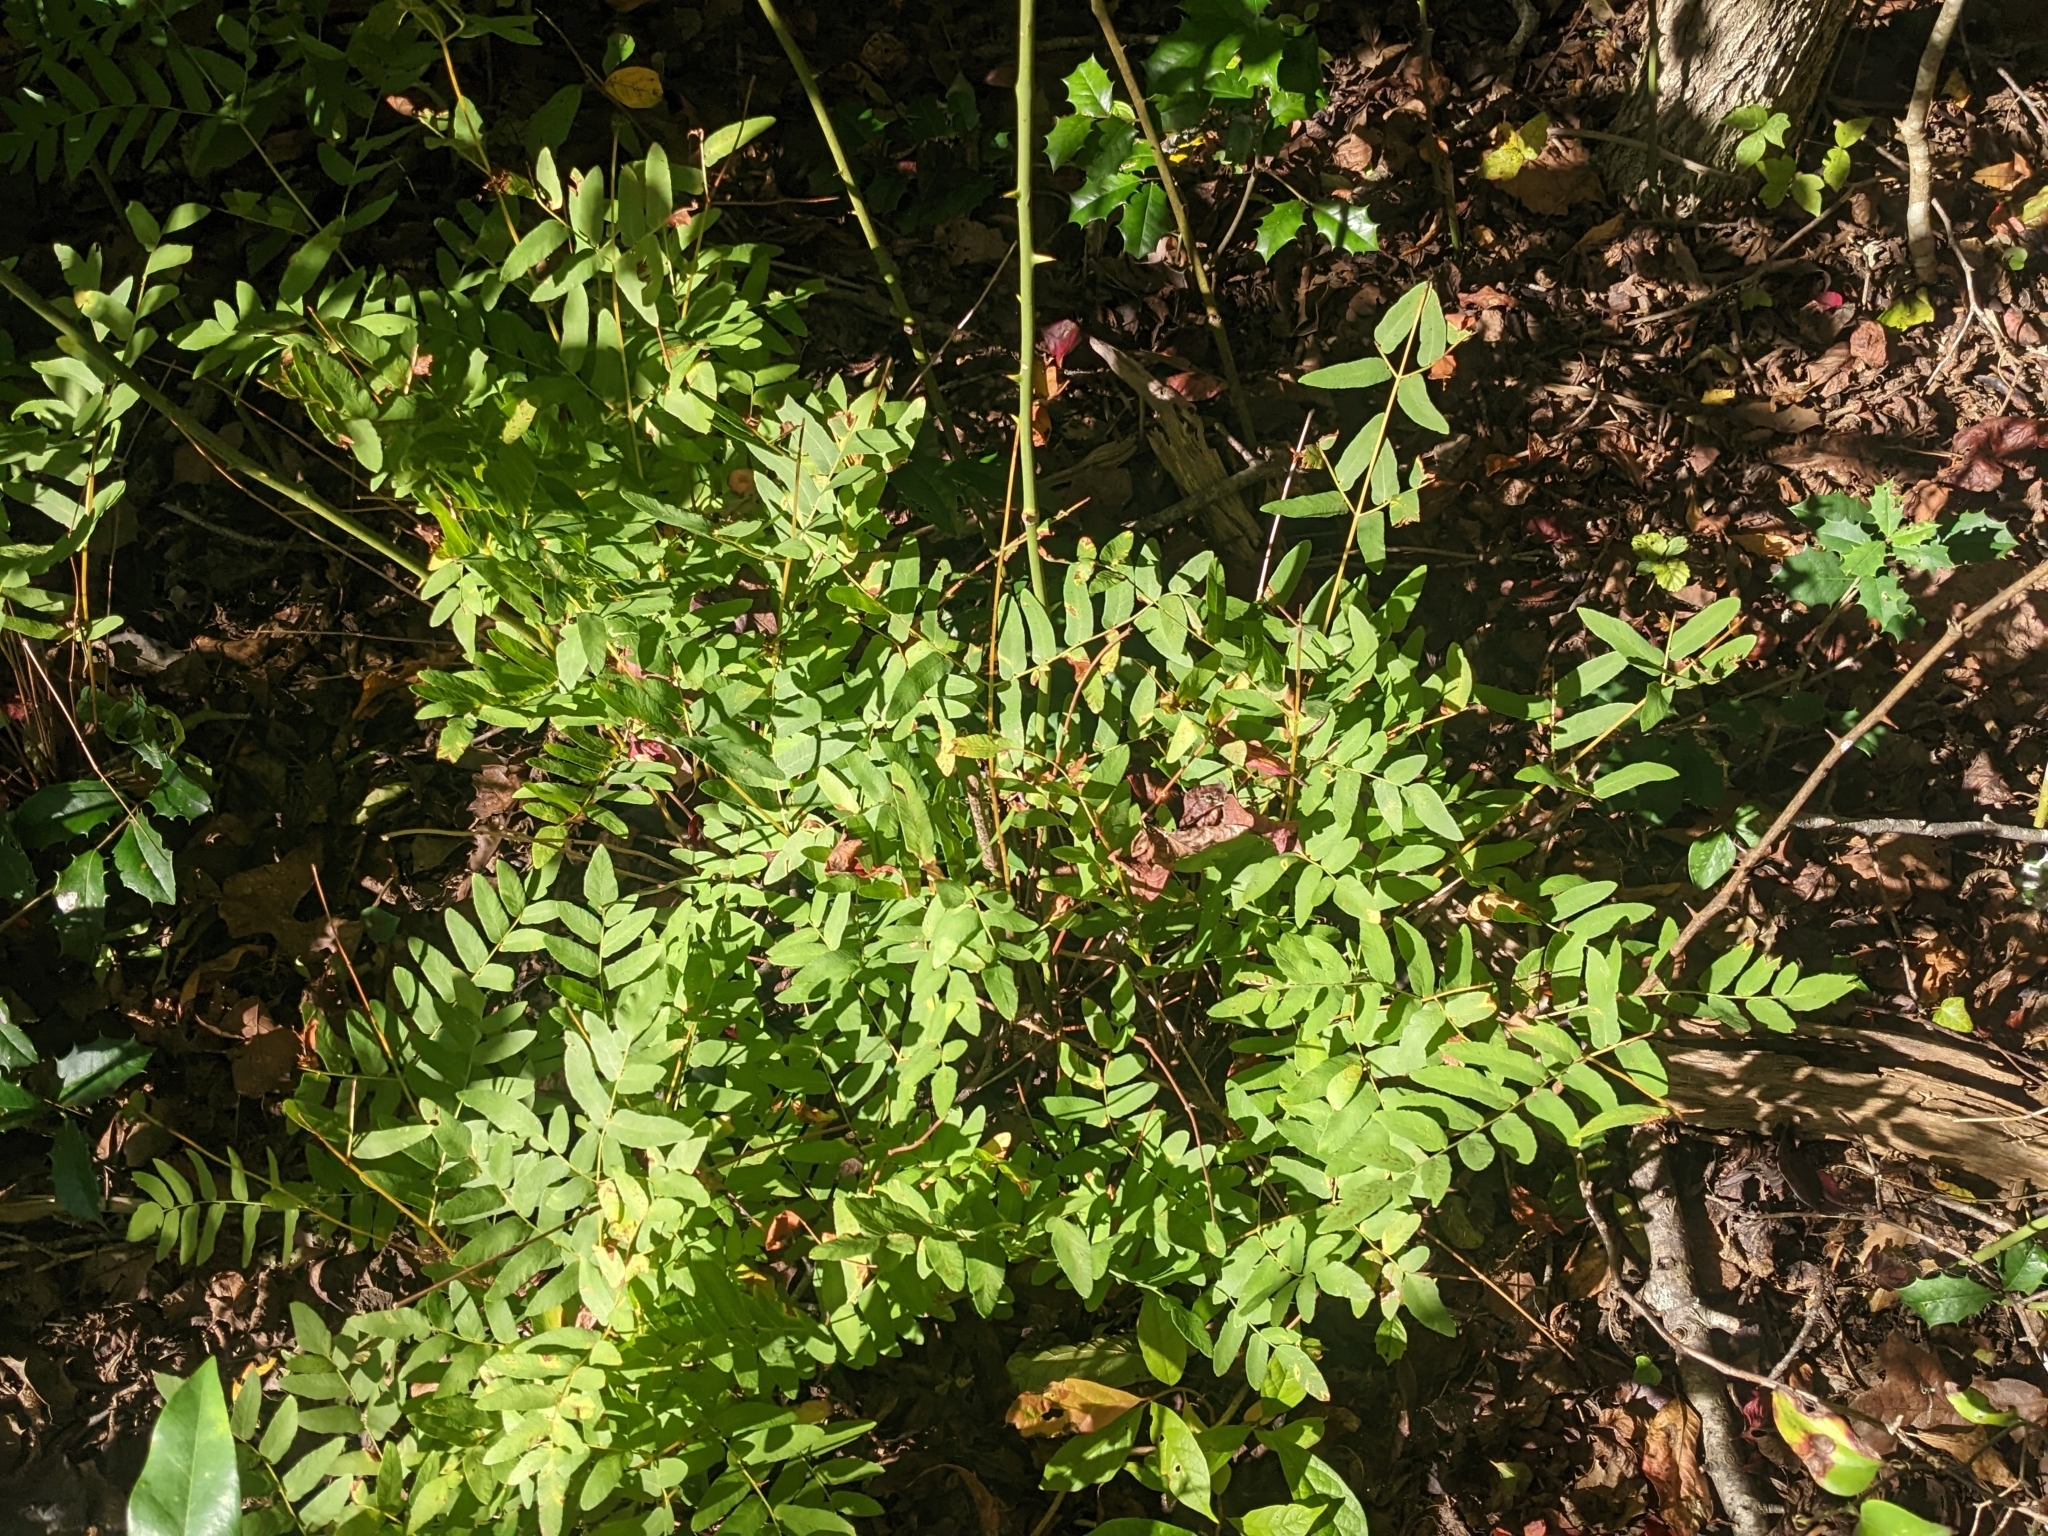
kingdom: Plantae
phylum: Tracheophyta
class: Polypodiopsida
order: Osmundales
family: Osmundaceae
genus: Osmunda
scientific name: Osmunda spectabilis
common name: American royal fern
